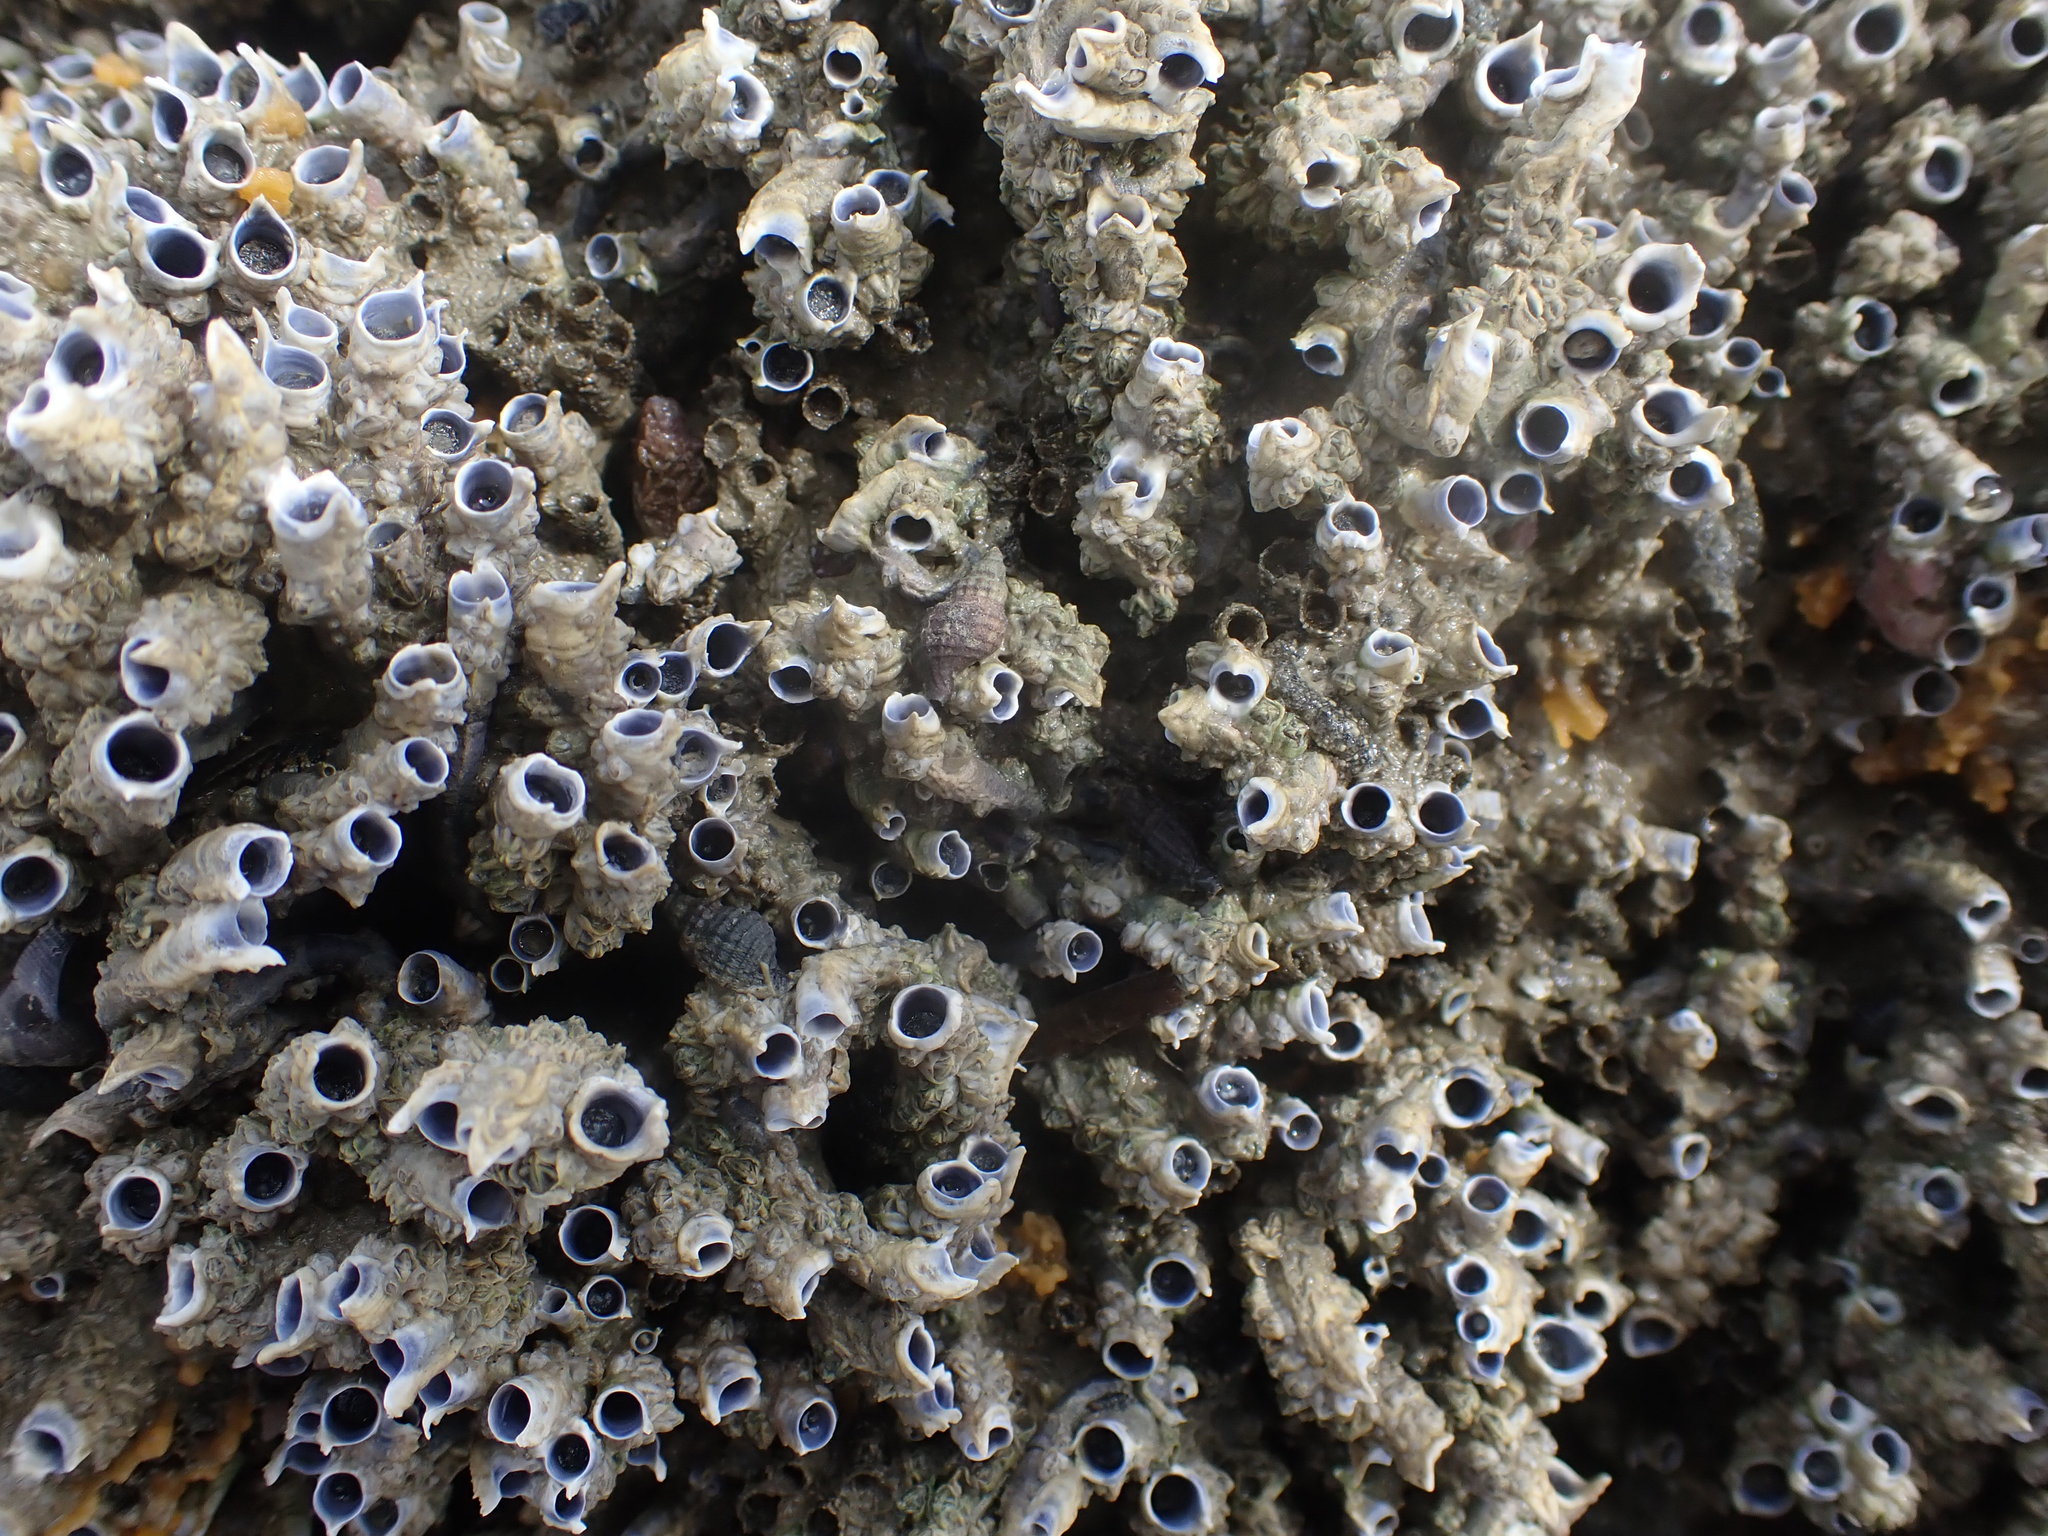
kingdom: Animalia
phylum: Mollusca
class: Gastropoda
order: Neogastropoda
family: Muricidae
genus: Xymene
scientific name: Xymene plebeius
